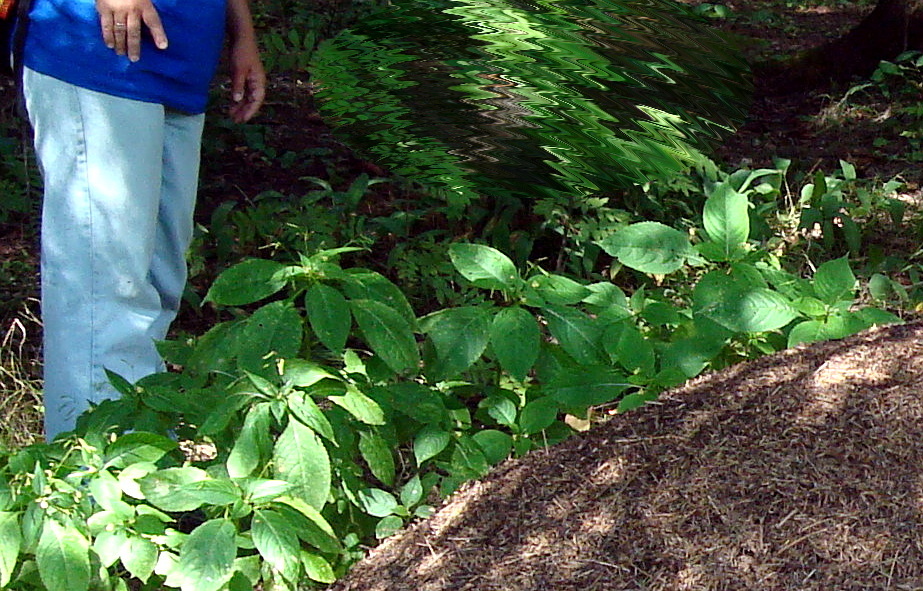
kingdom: Plantae
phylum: Tracheophyta
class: Magnoliopsida
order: Ericales
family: Balsaminaceae
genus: Impatiens
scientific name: Impatiens parviflora
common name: Small balsam
